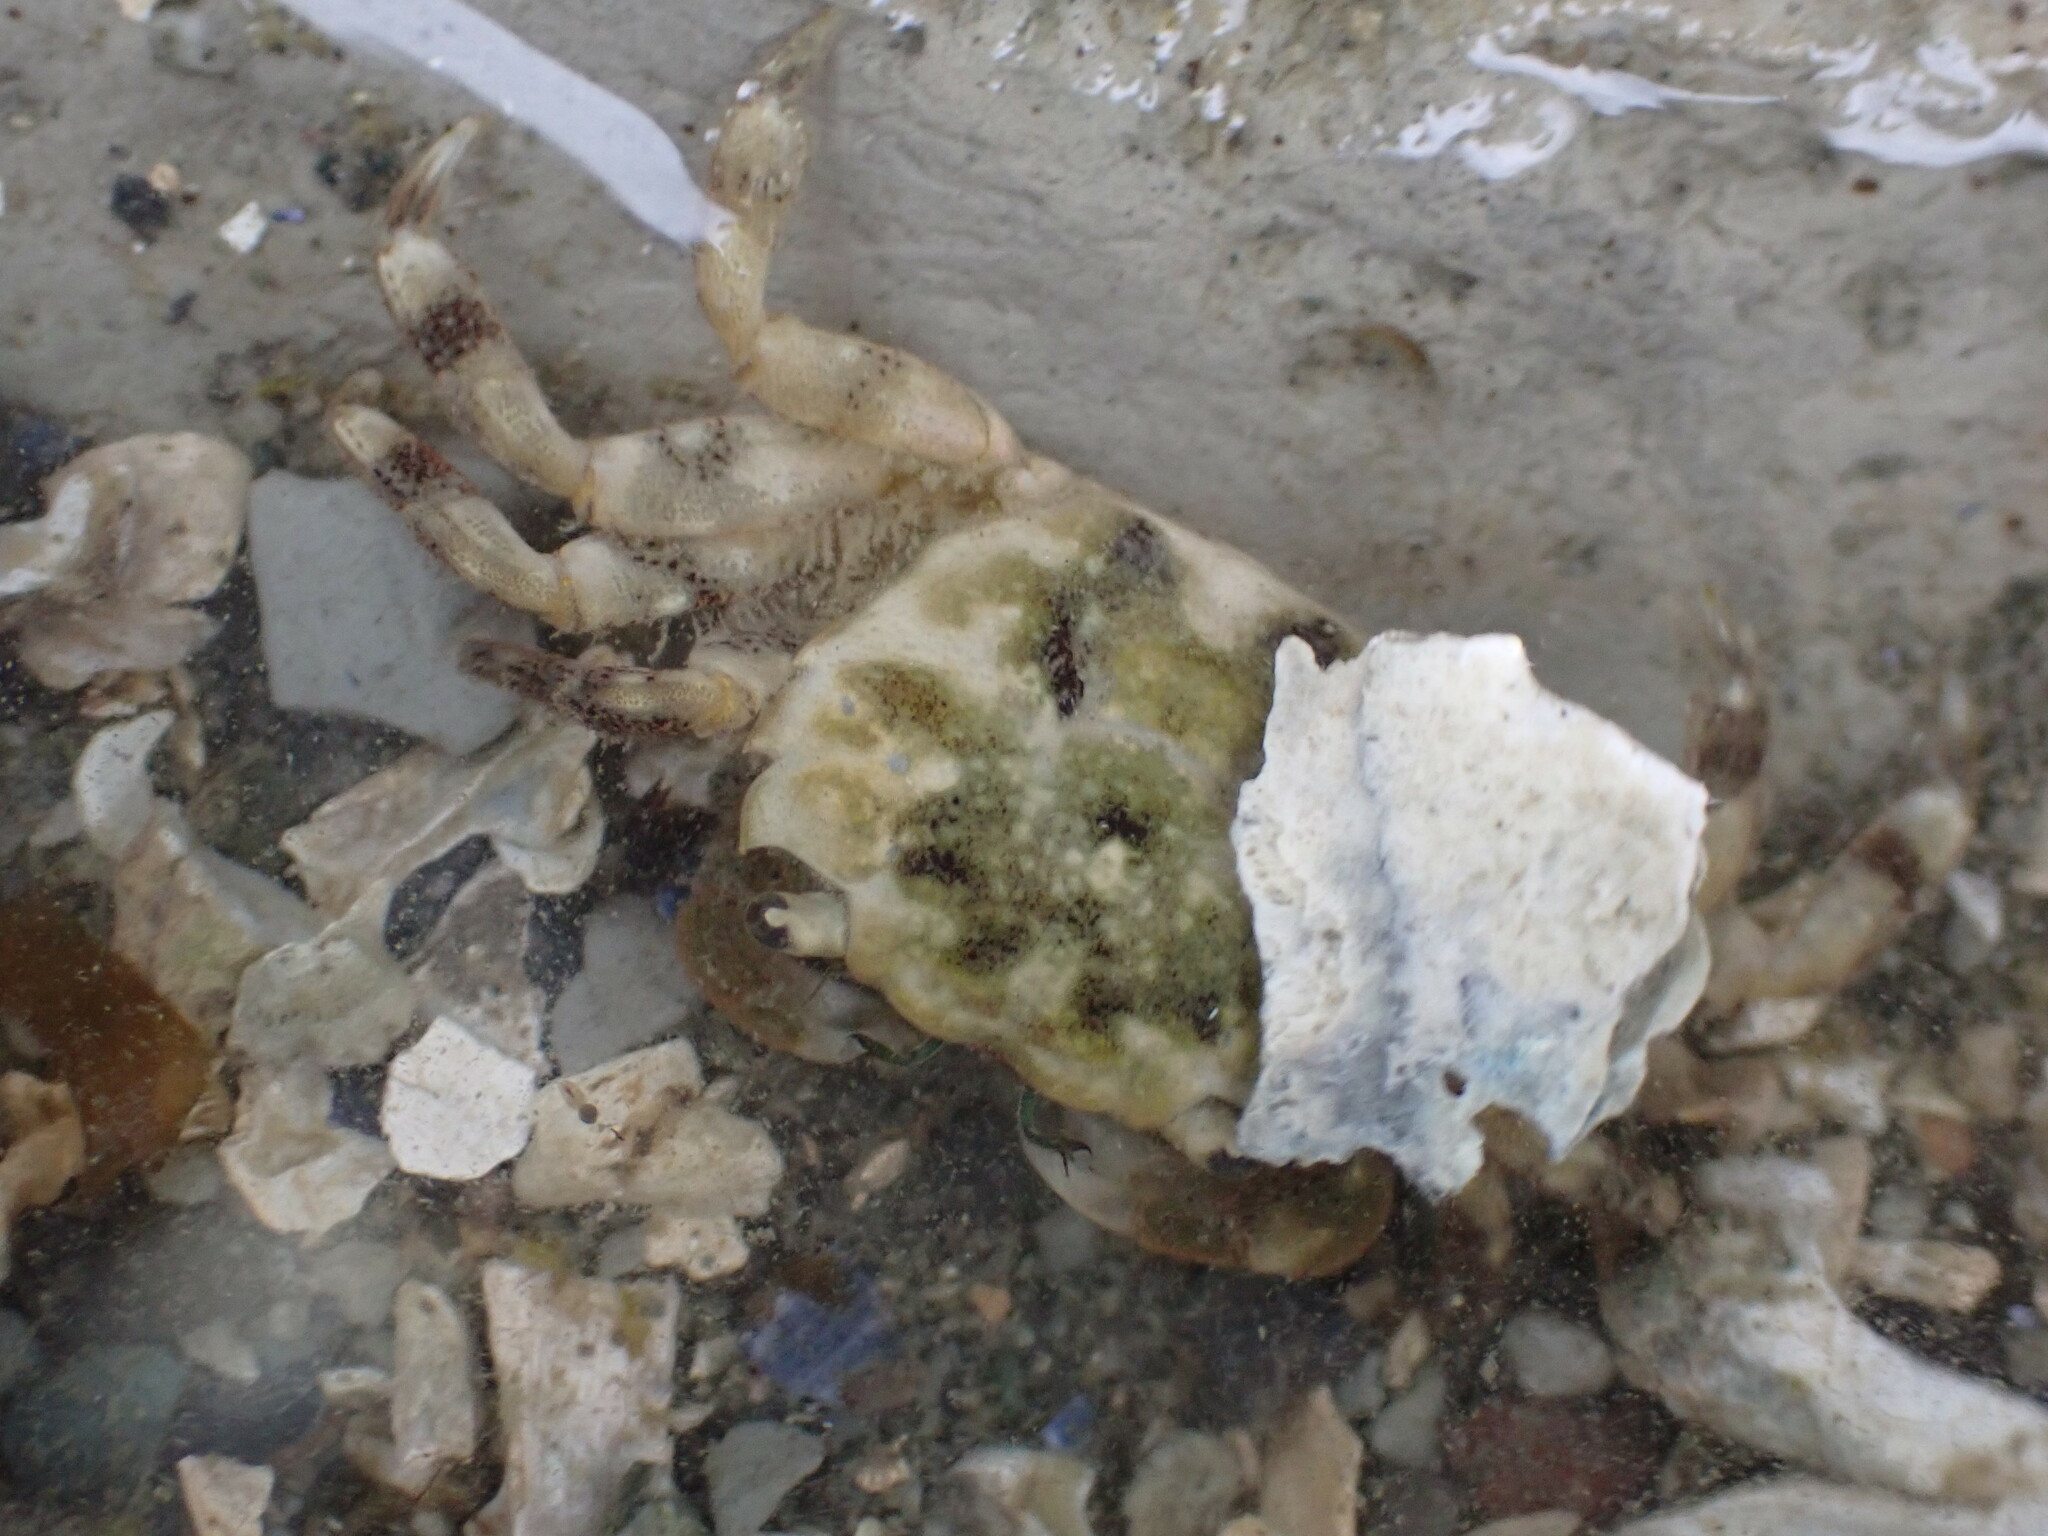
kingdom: Animalia
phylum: Arthropoda
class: Malacostraca
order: Decapoda
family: Varunidae
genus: Hemigrapsus
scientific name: Hemigrapsus oregonensis
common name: Yellow shore crab
